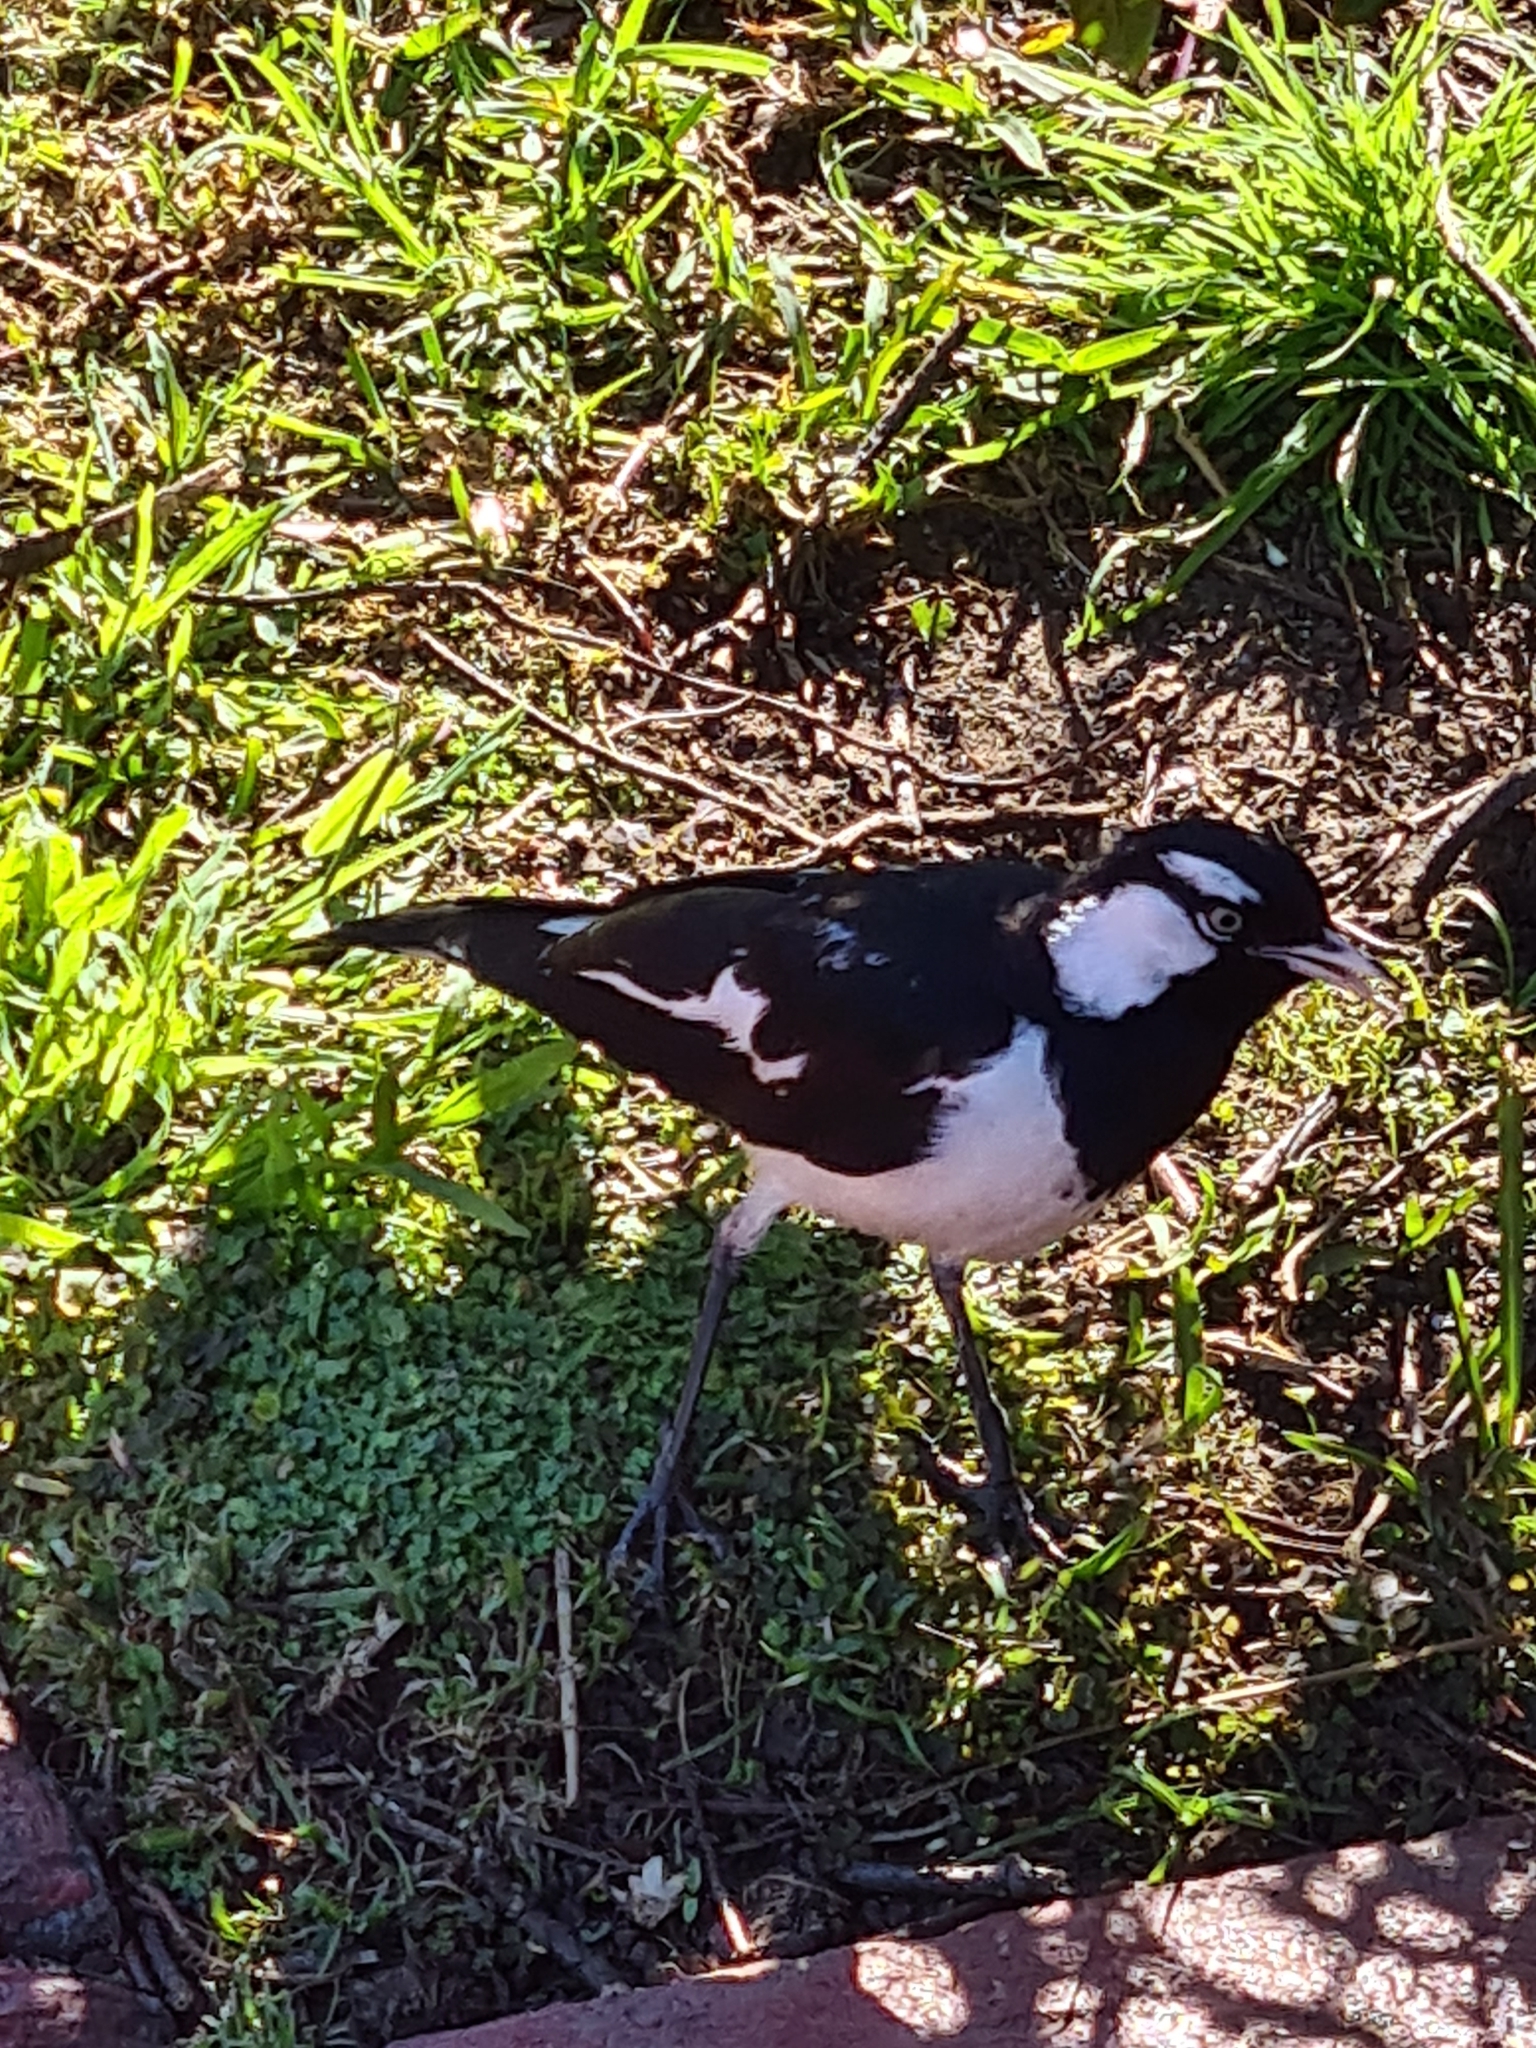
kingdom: Animalia
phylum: Chordata
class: Aves
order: Passeriformes
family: Monarchidae
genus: Grallina
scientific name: Grallina cyanoleuca
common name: Magpie-lark
